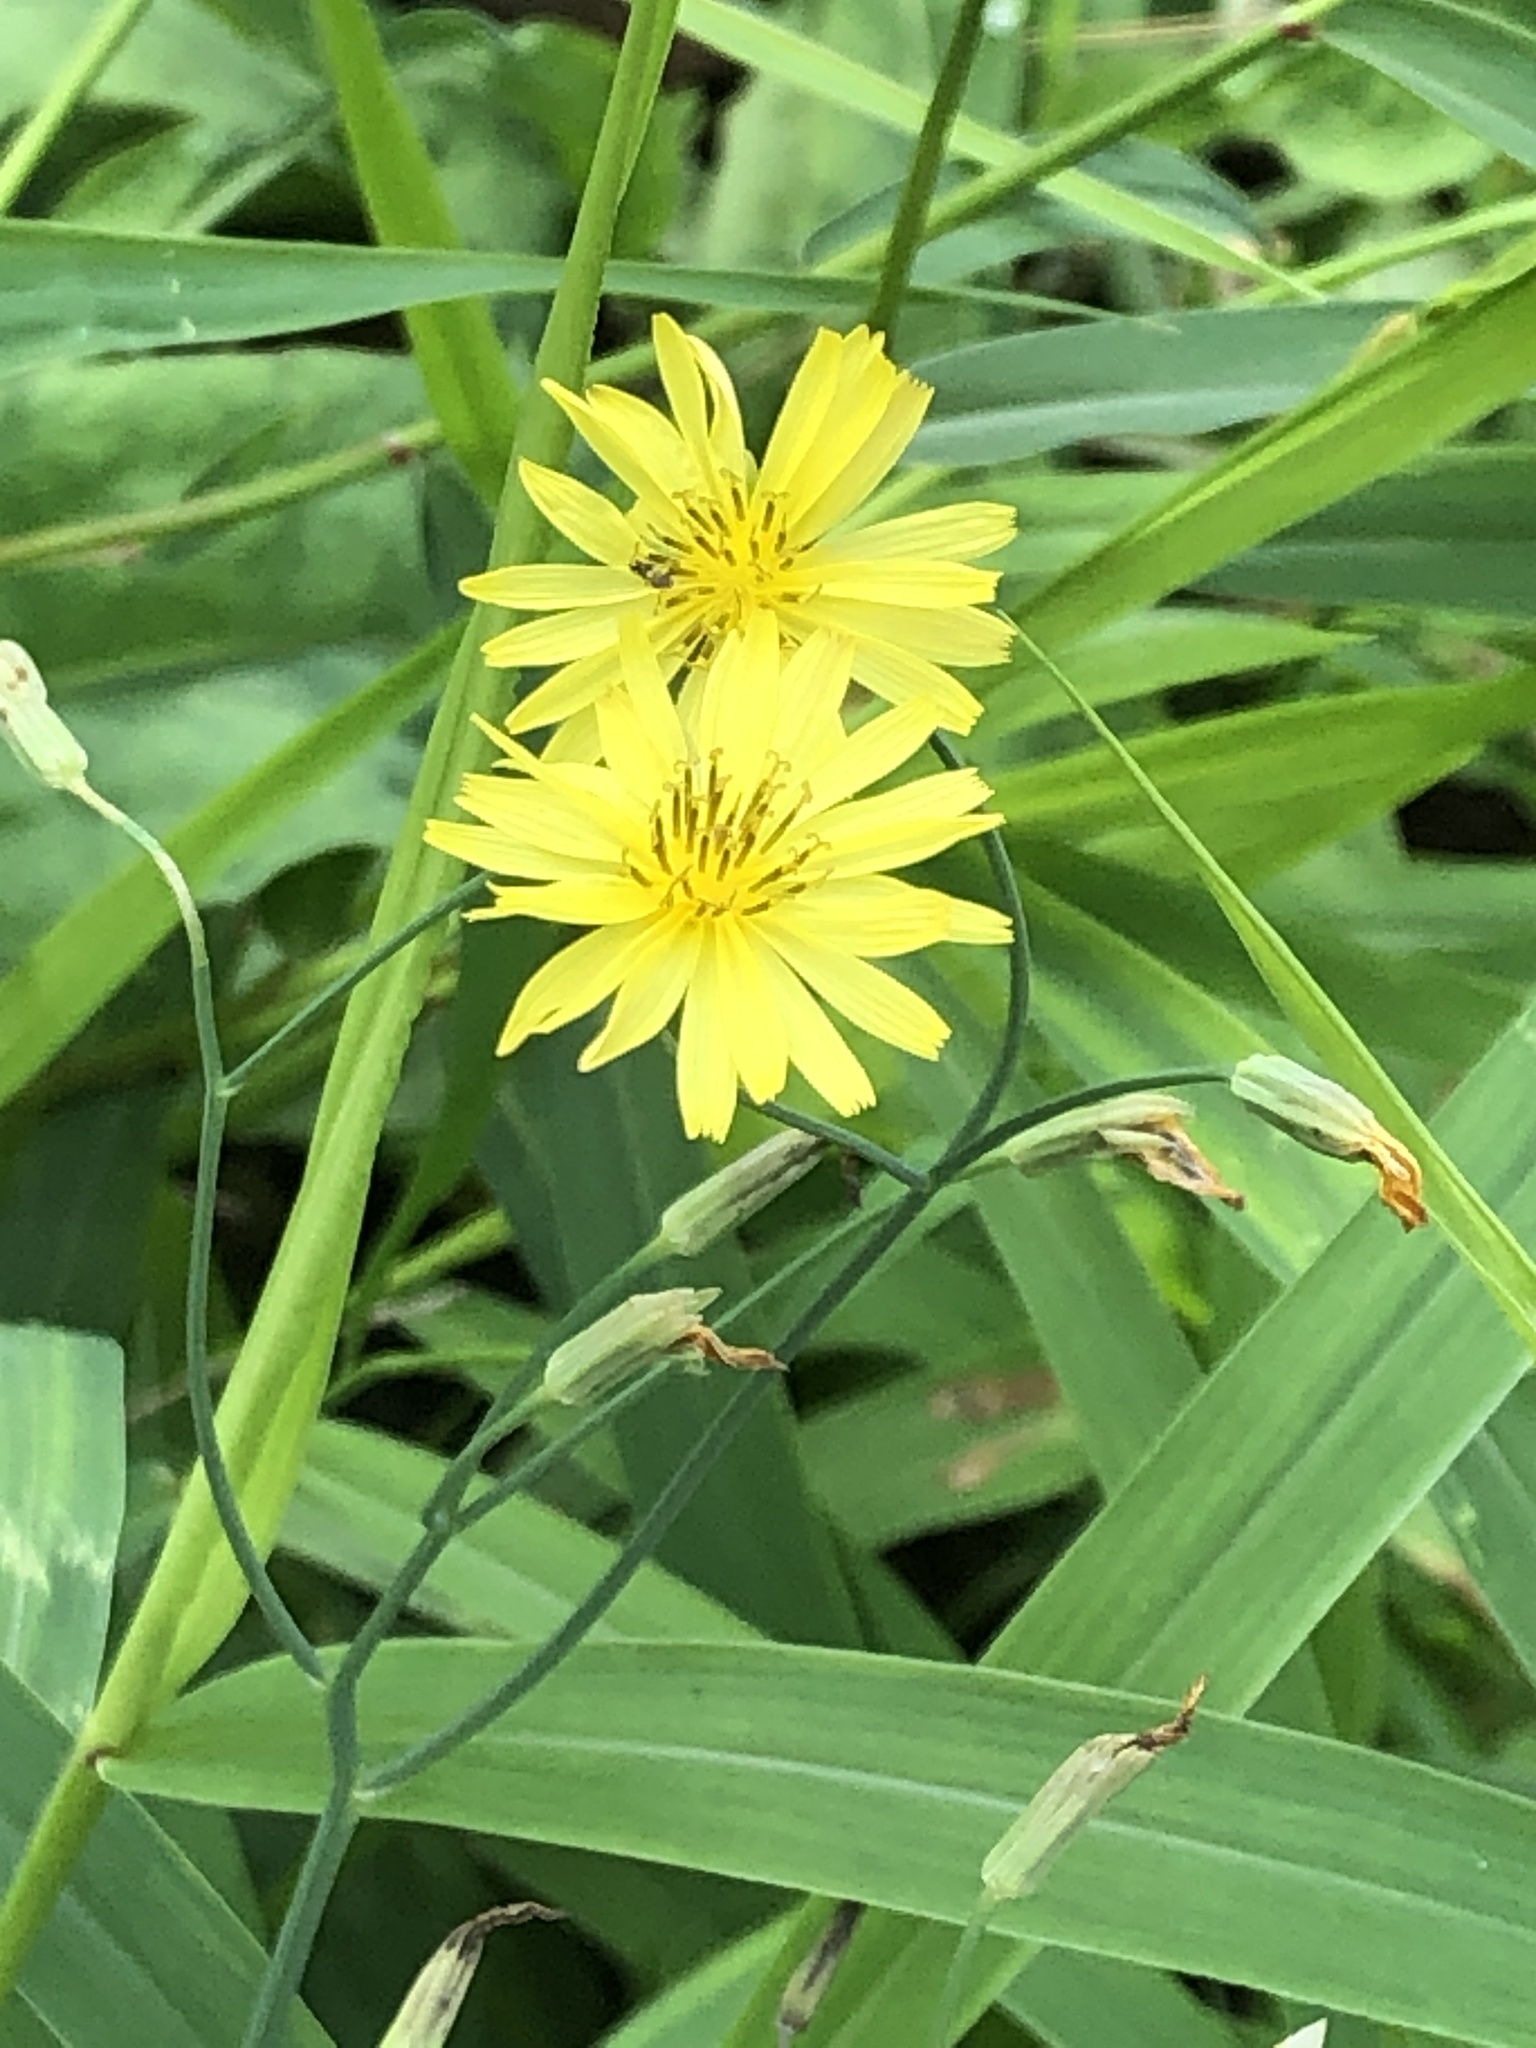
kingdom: Plantae
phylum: Tracheophyta
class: Magnoliopsida
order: Asterales
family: Asteraceae
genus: Ixeris
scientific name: Ixeris chinensis
